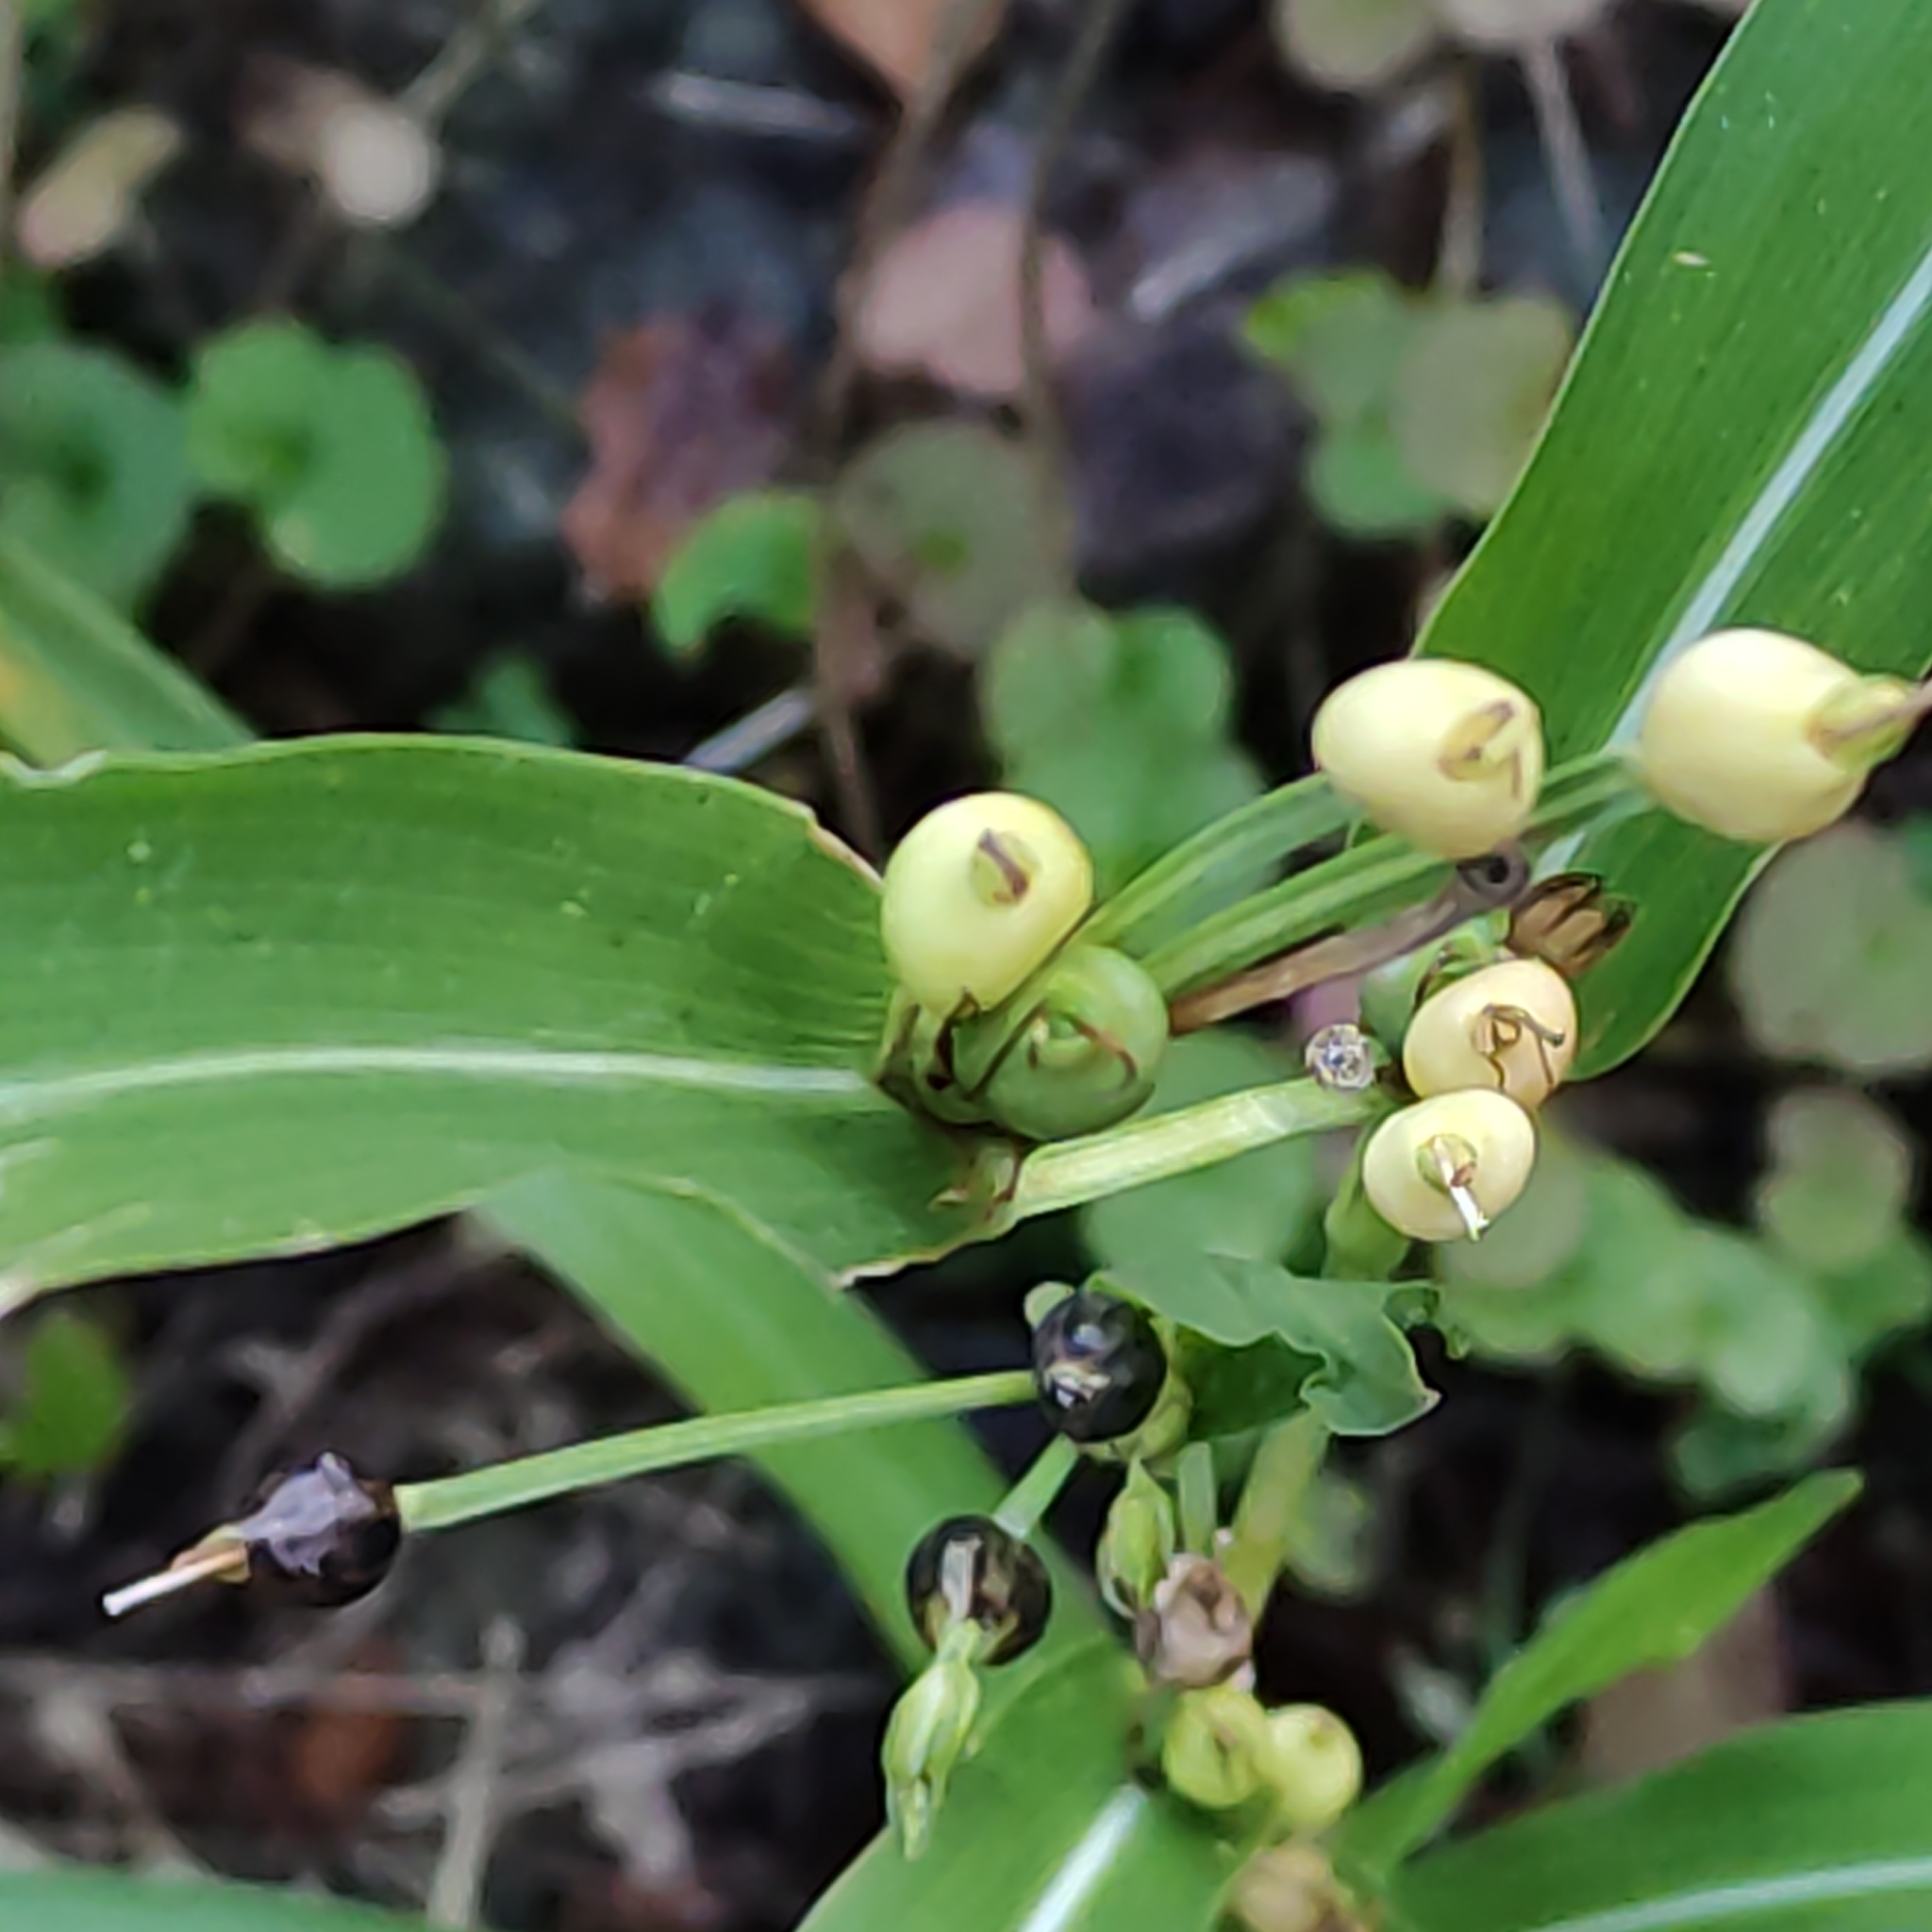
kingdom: Plantae
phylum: Tracheophyta
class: Liliopsida
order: Poales
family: Poaceae
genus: Coix
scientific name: Coix lacryma-jobi
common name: Job's tears
